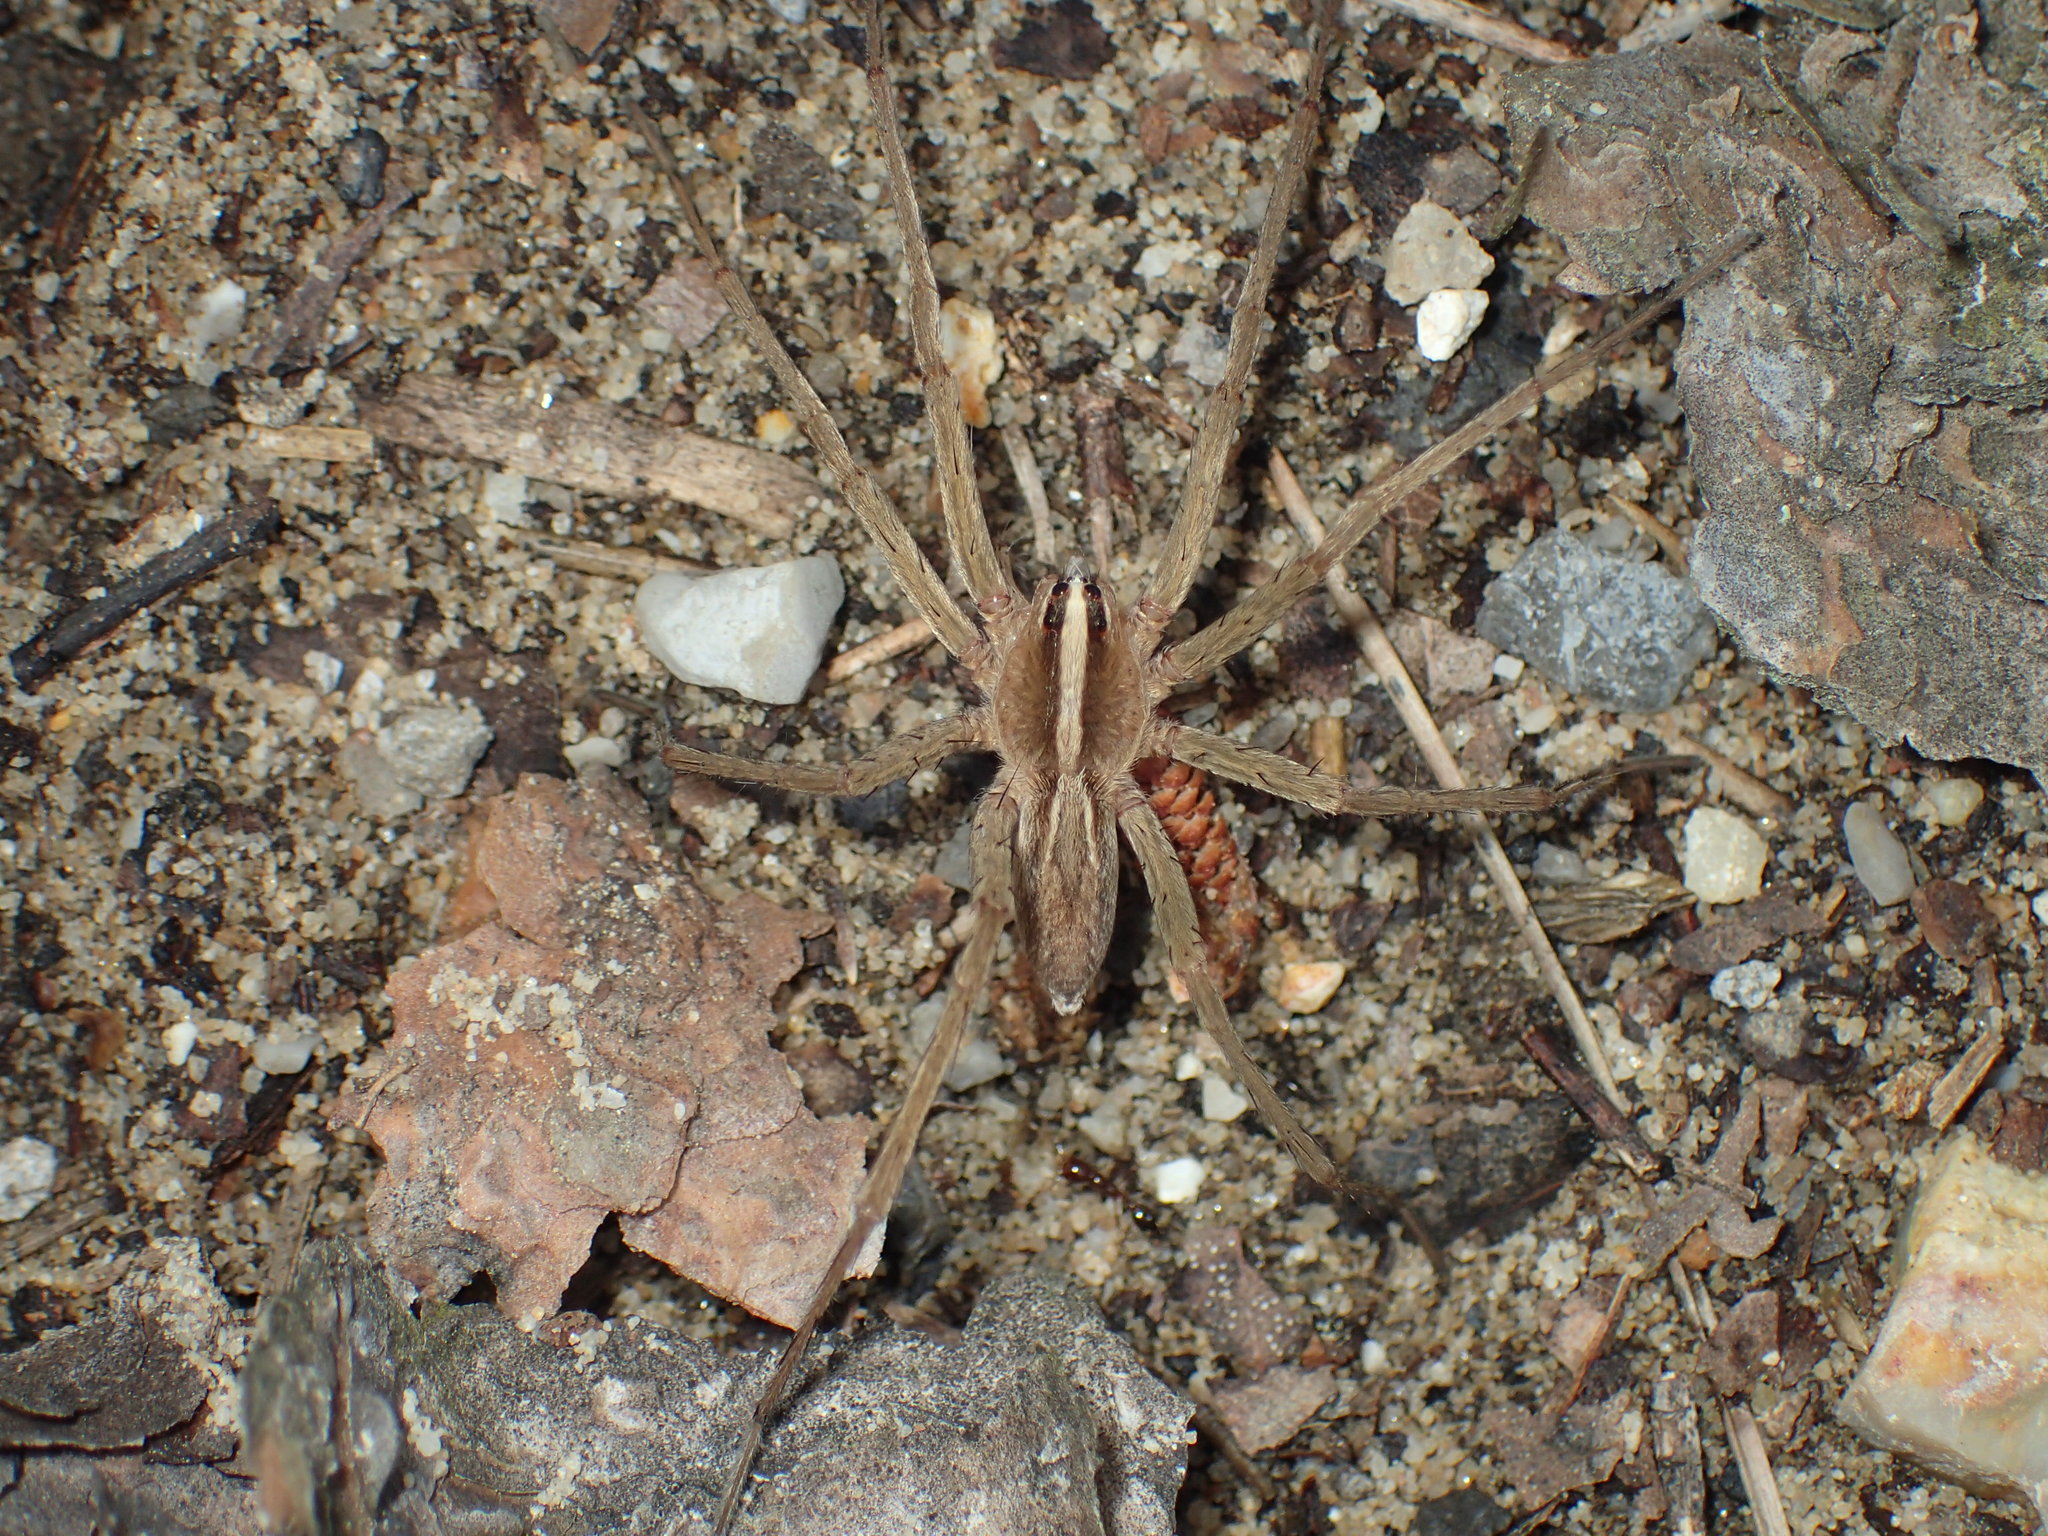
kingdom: Animalia
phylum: Arthropoda
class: Arachnida
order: Araneae
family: Lycosidae
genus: Rabidosa
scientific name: Rabidosa hentzi
